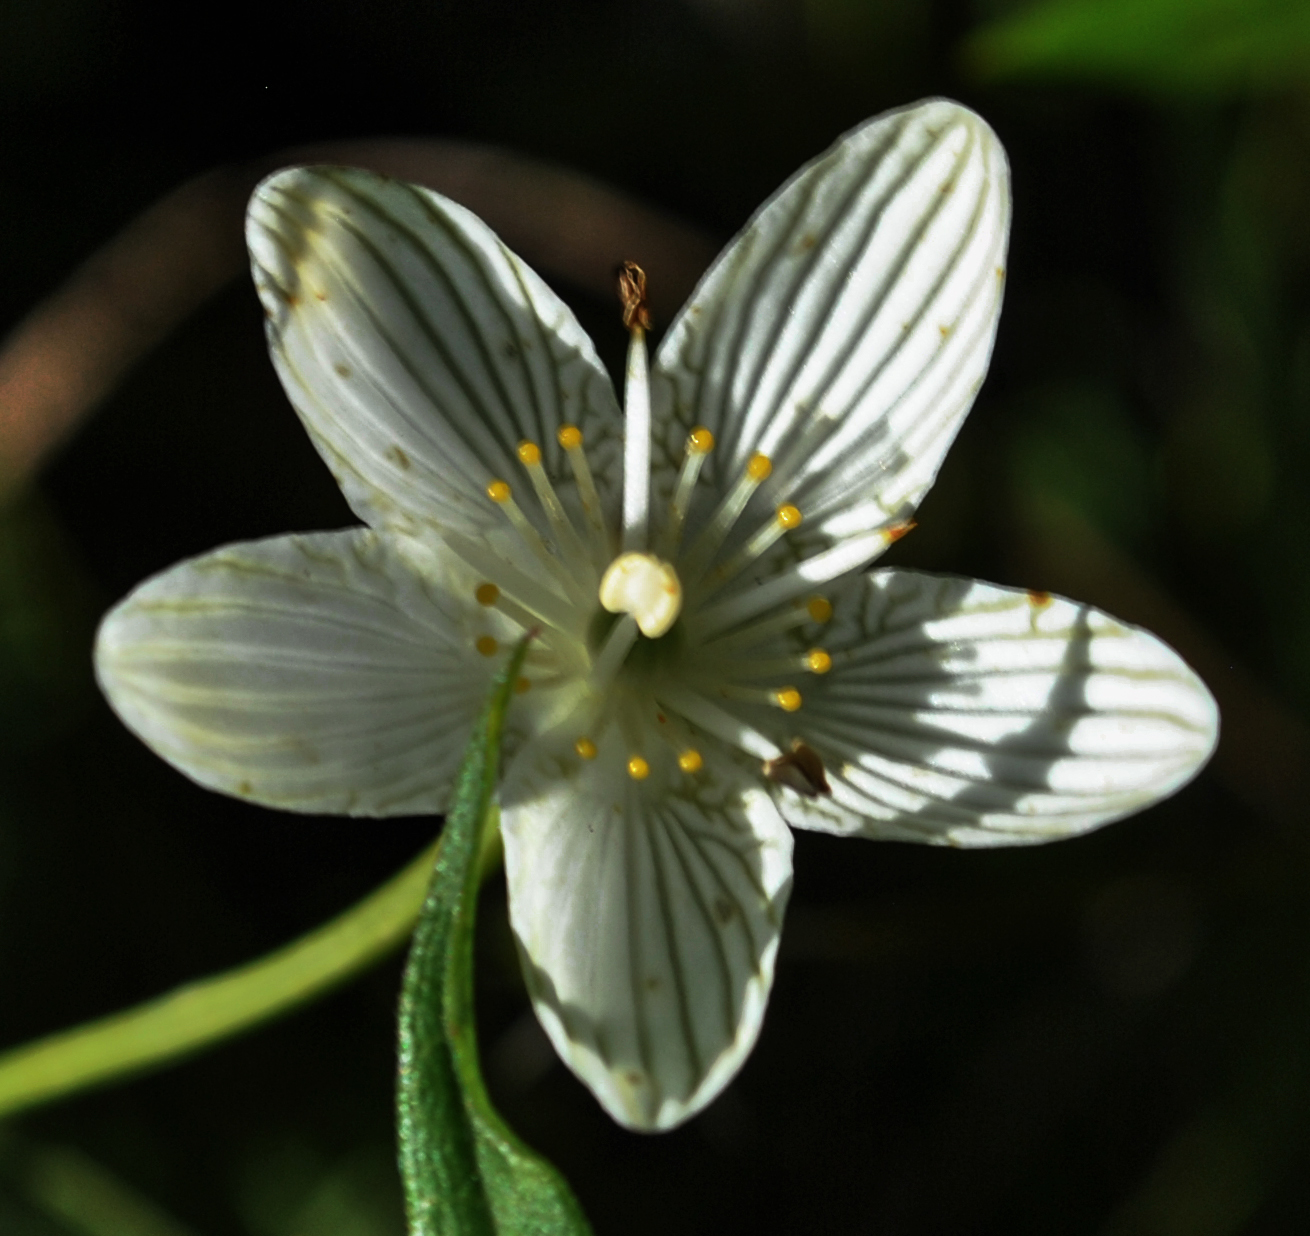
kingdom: Plantae
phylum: Tracheophyta
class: Magnoliopsida
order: Celastrales
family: Parnassiaceae
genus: Parnassia
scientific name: Parnassia glauca
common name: American grass-of-parnassus
